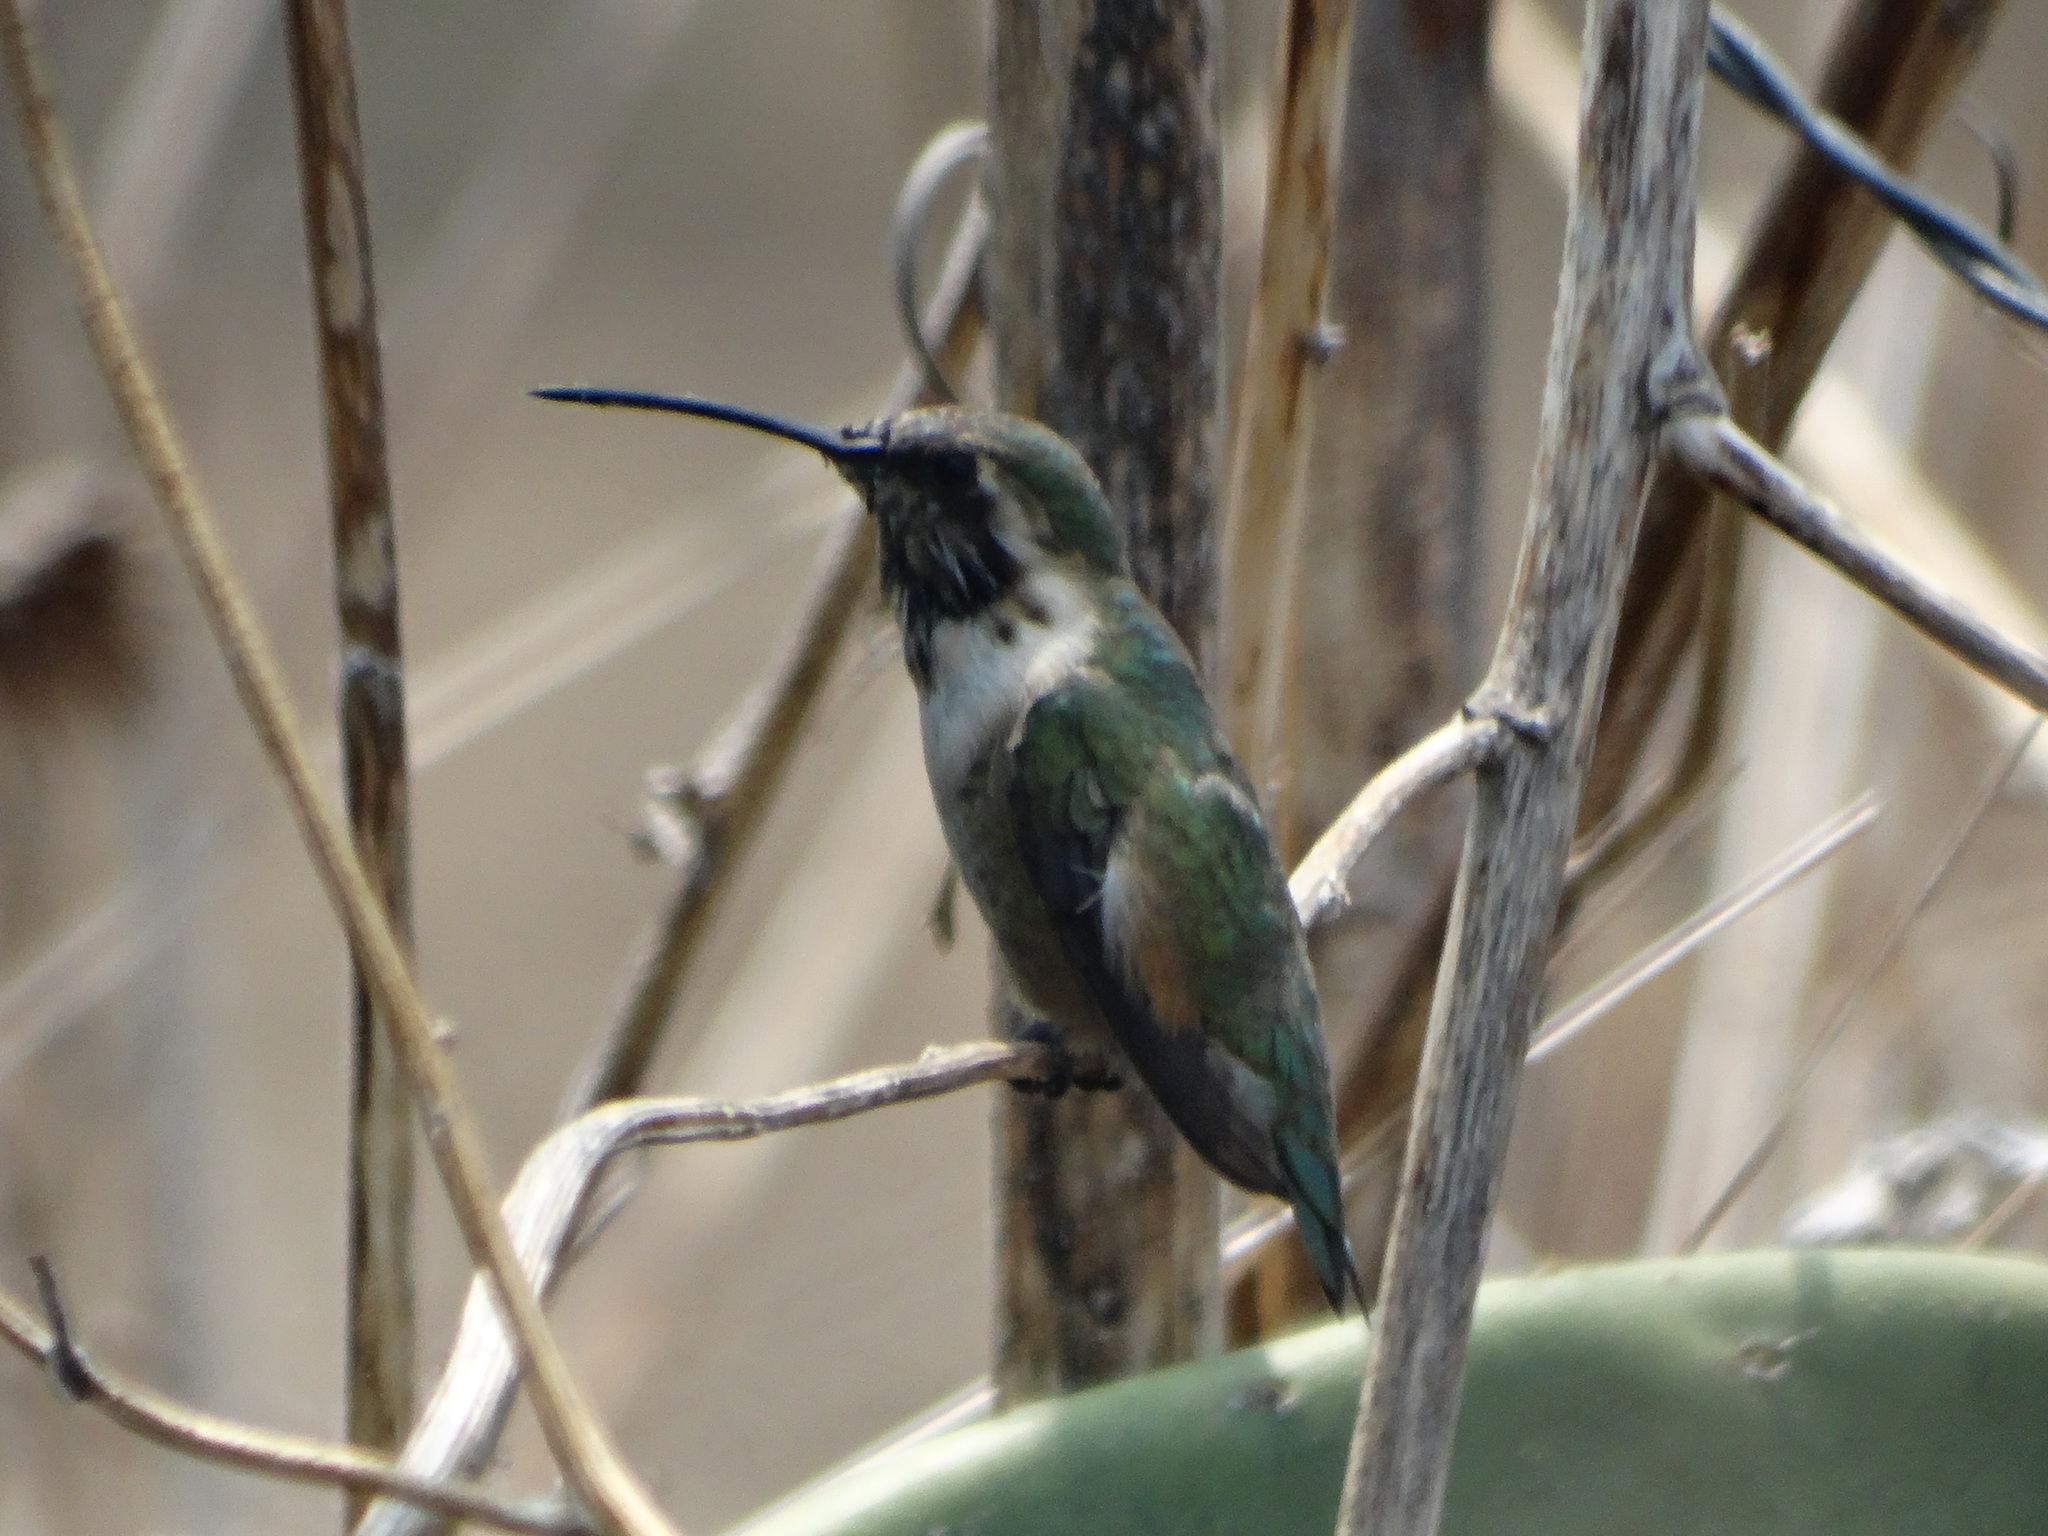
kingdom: Animalia
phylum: Chordata
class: Aves
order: Apodiformes
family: Trochilidae
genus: Calothorax
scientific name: Calothorax lucifer
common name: Lucifer sheartail
